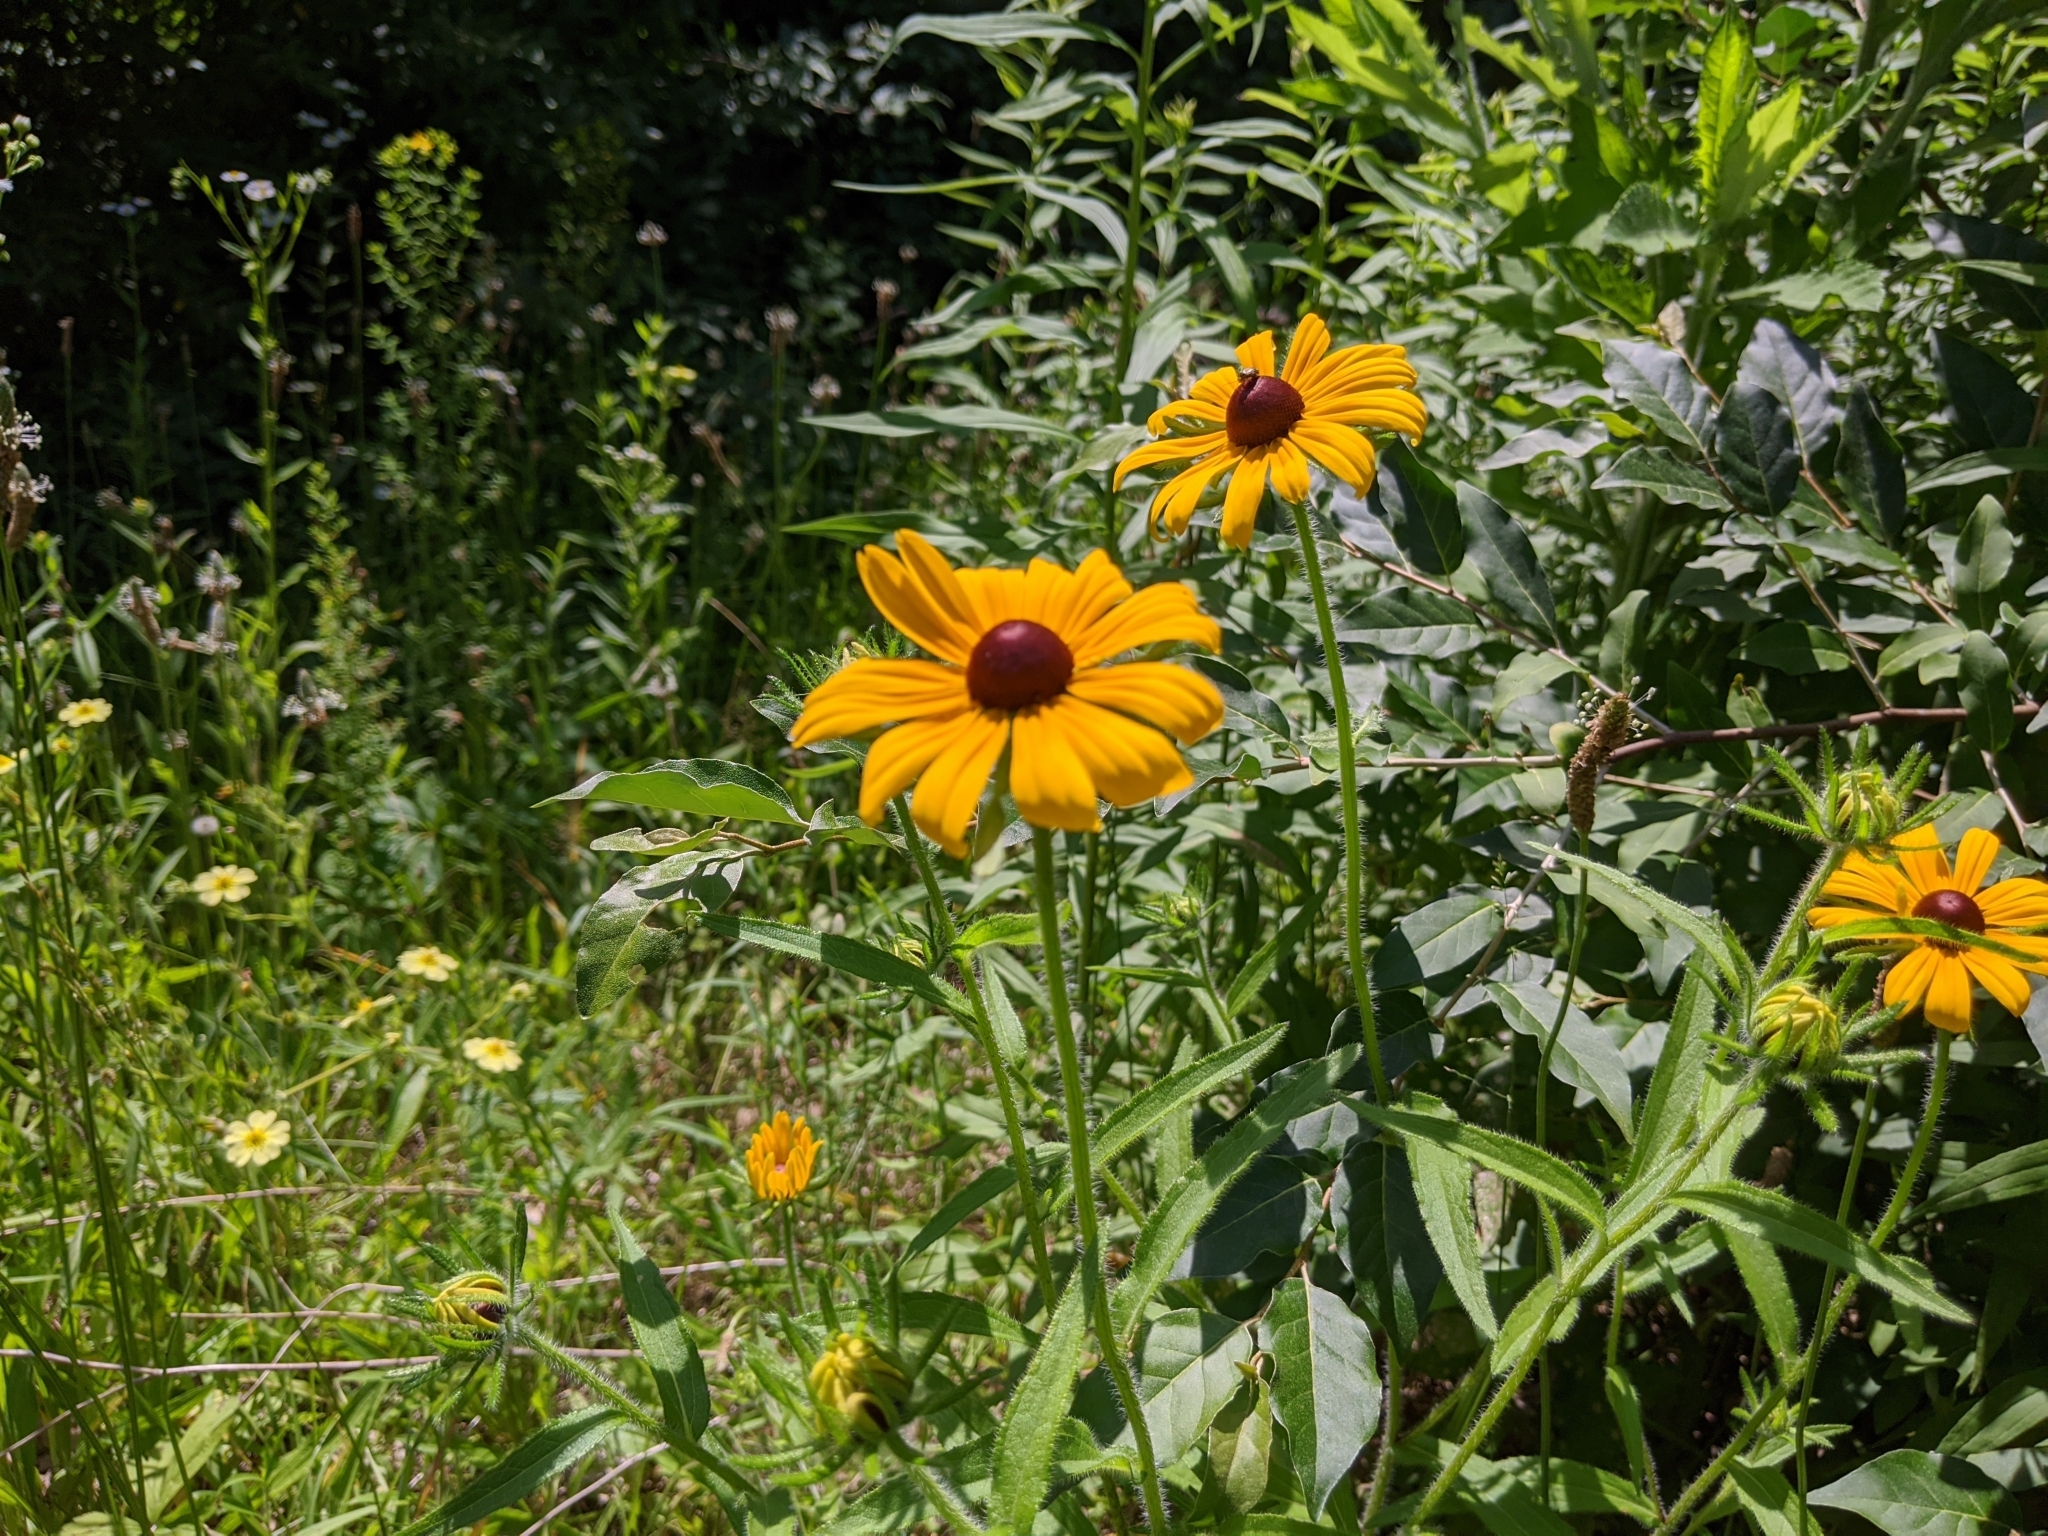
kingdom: Plantae
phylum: Tracheophyta
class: Magnoliopsida
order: Asterales
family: Asteraceae
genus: Rudbeckia
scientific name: Rudbeckia hirta
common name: Black-eyed-susan
